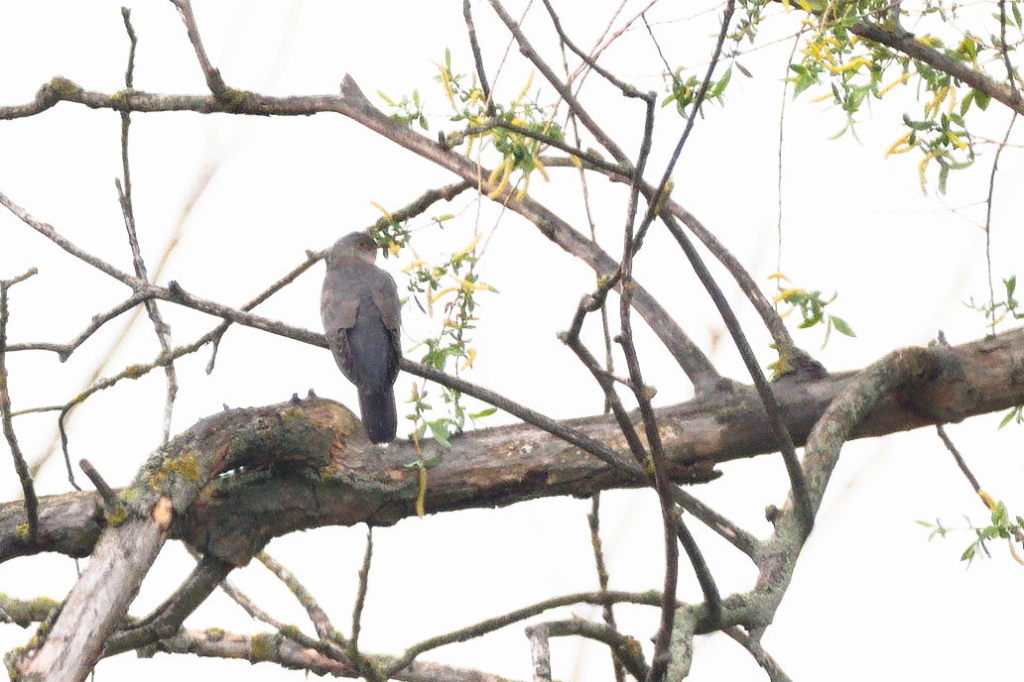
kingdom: Animalia
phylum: Chordata
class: Aves
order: Cuculiformes
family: Cuculidae
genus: Cuculus
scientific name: Cuculus canorus
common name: Common cuckoo
